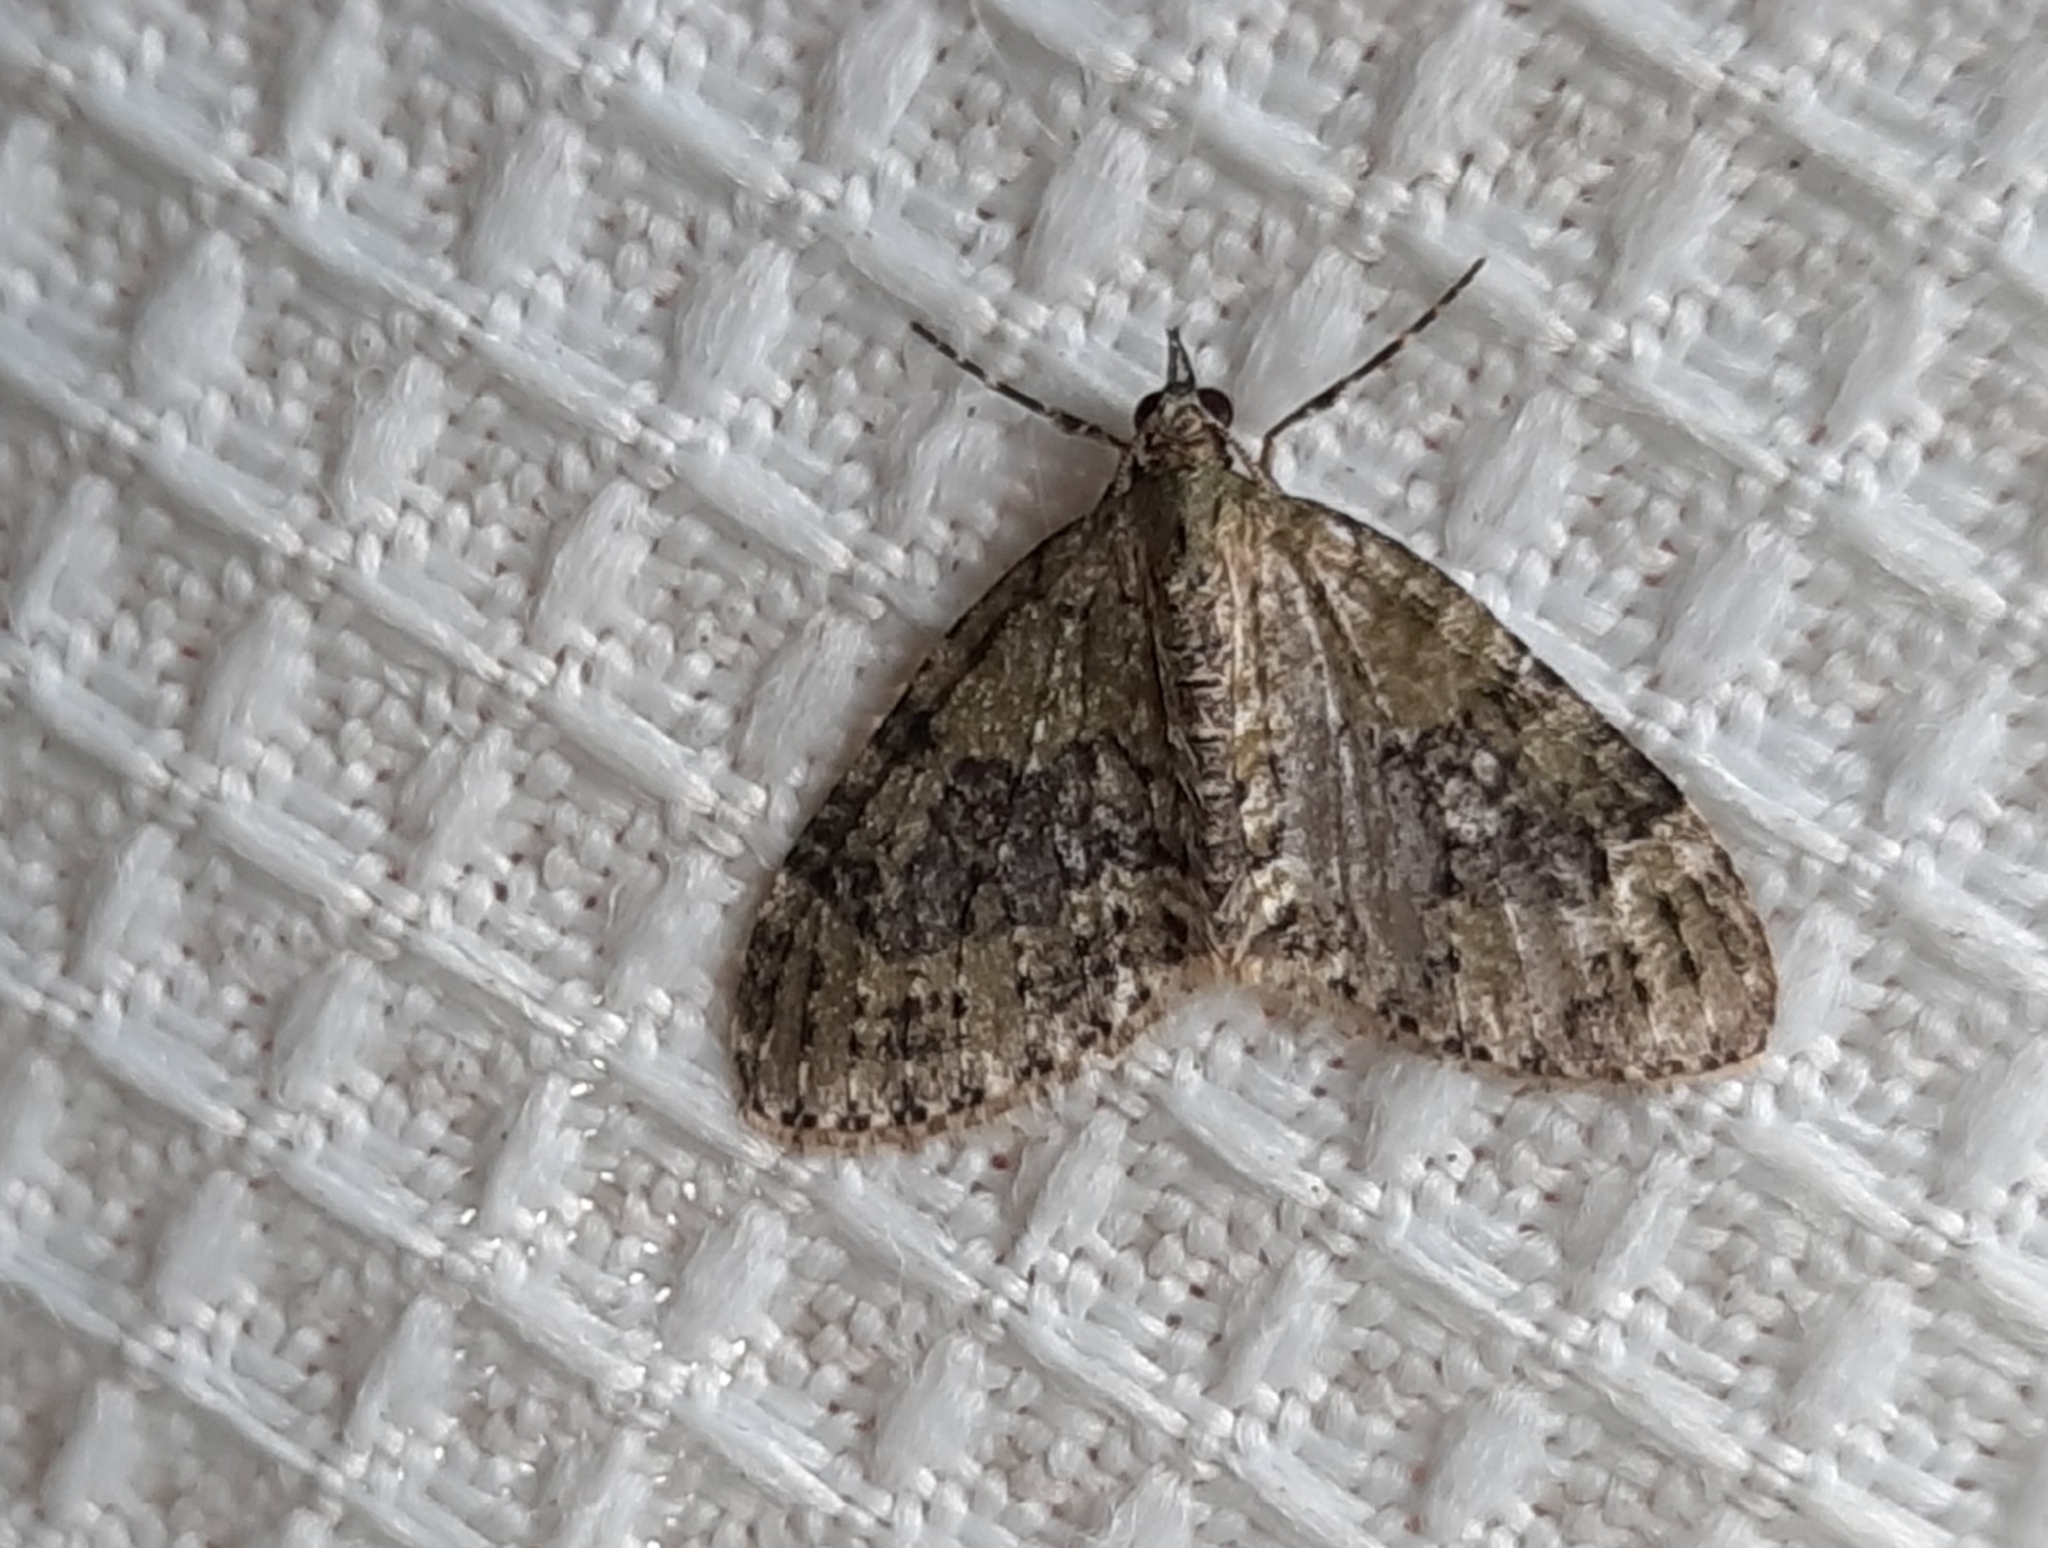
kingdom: Animalia
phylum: Arthropoda
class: Insecta
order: Lepidoptera
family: Geometridae
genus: Acasis
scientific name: Acasis viretata
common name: Yellow-barred brindle
